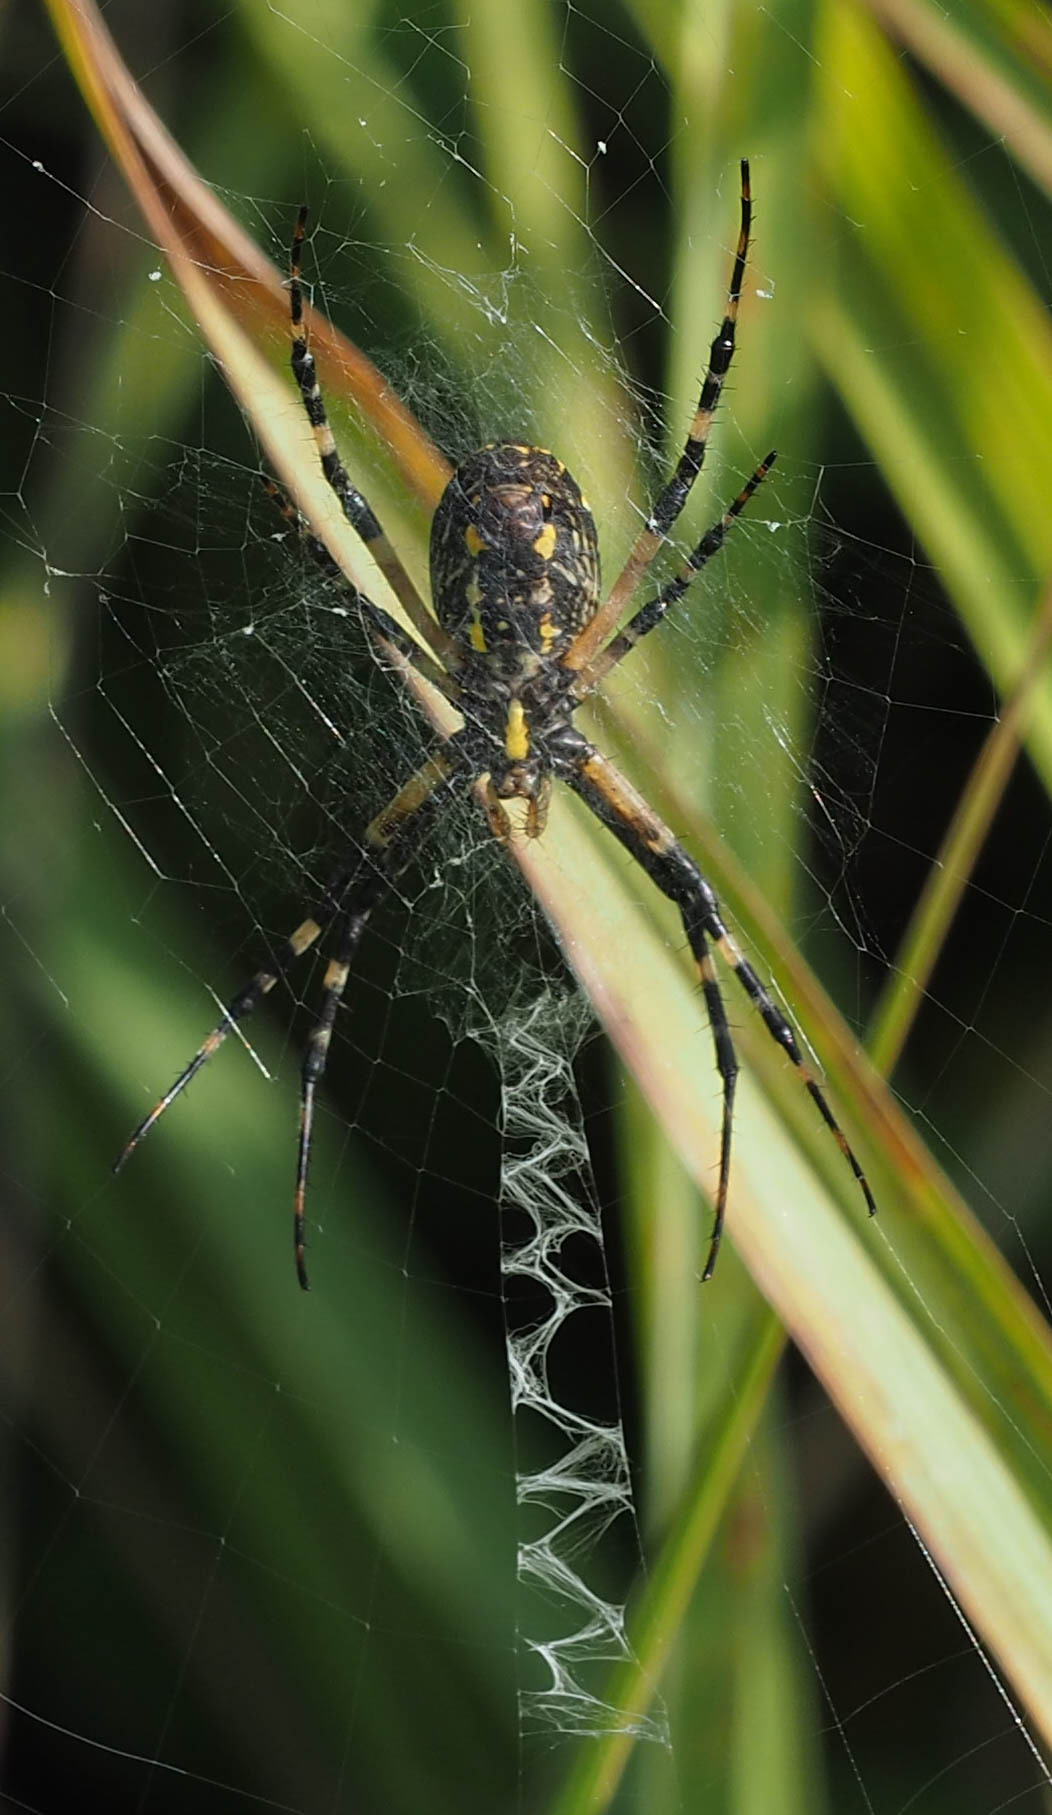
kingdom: Animalia
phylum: Arthropoda
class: Arachnida
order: Araneae
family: Araneidae
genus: Argiope
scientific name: Argiope aurantia
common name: Orb weavers
